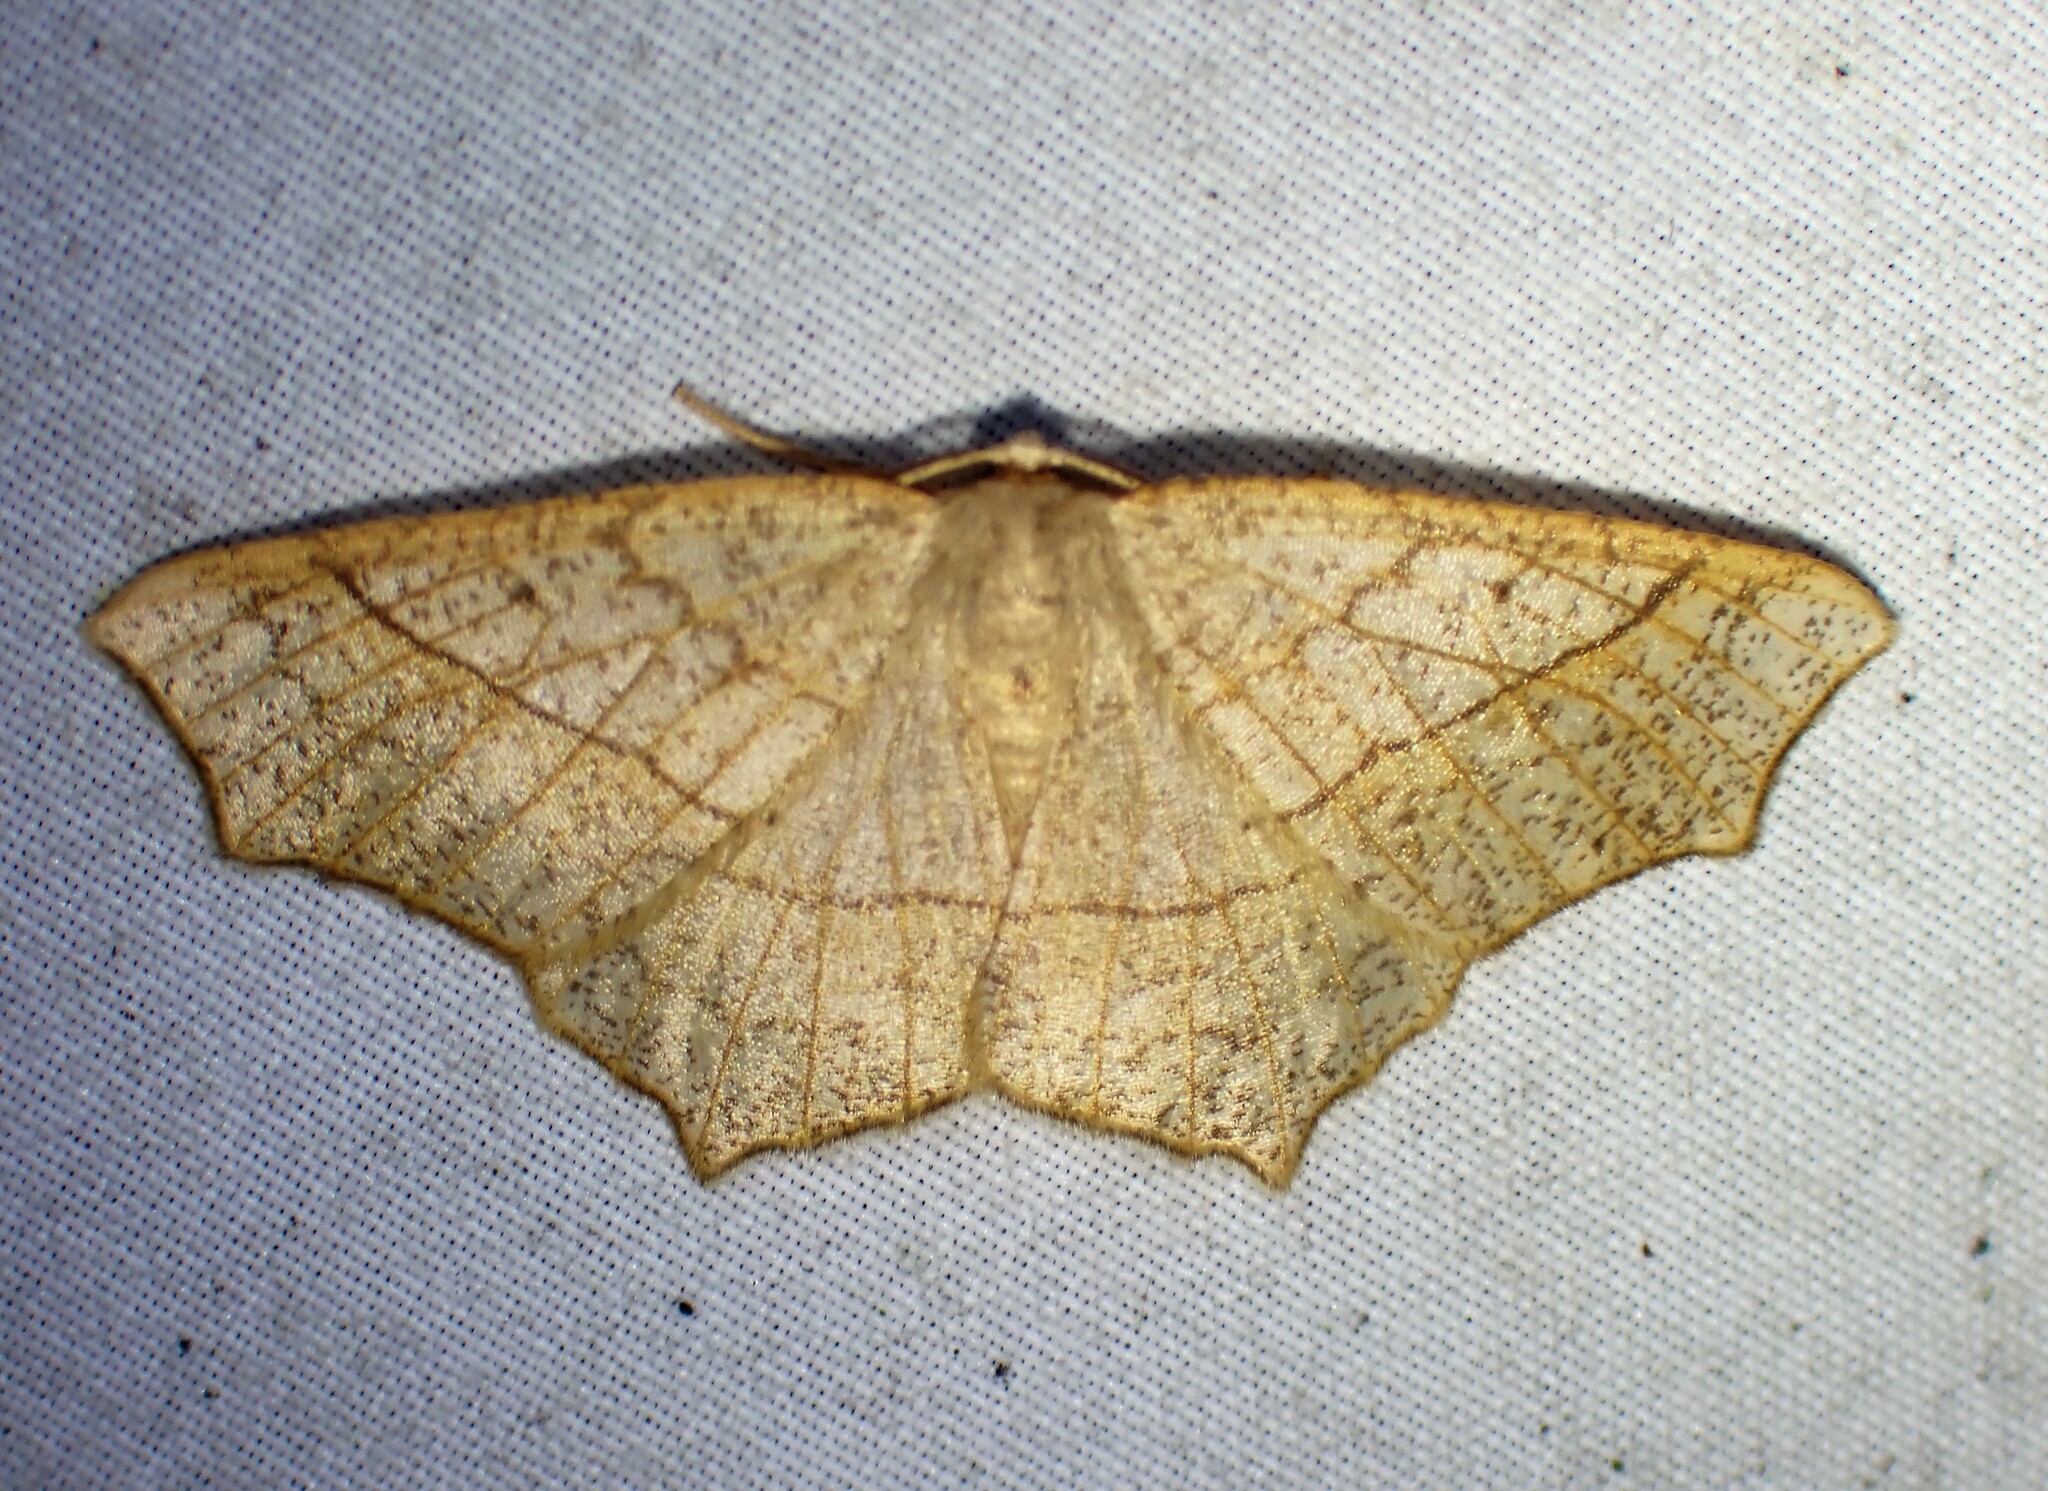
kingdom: Animalia
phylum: Arthropoda
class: Insecta
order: Lepidoptera
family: Geometridae
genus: Besma
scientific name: Besma quercivoraria
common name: Oak besma
